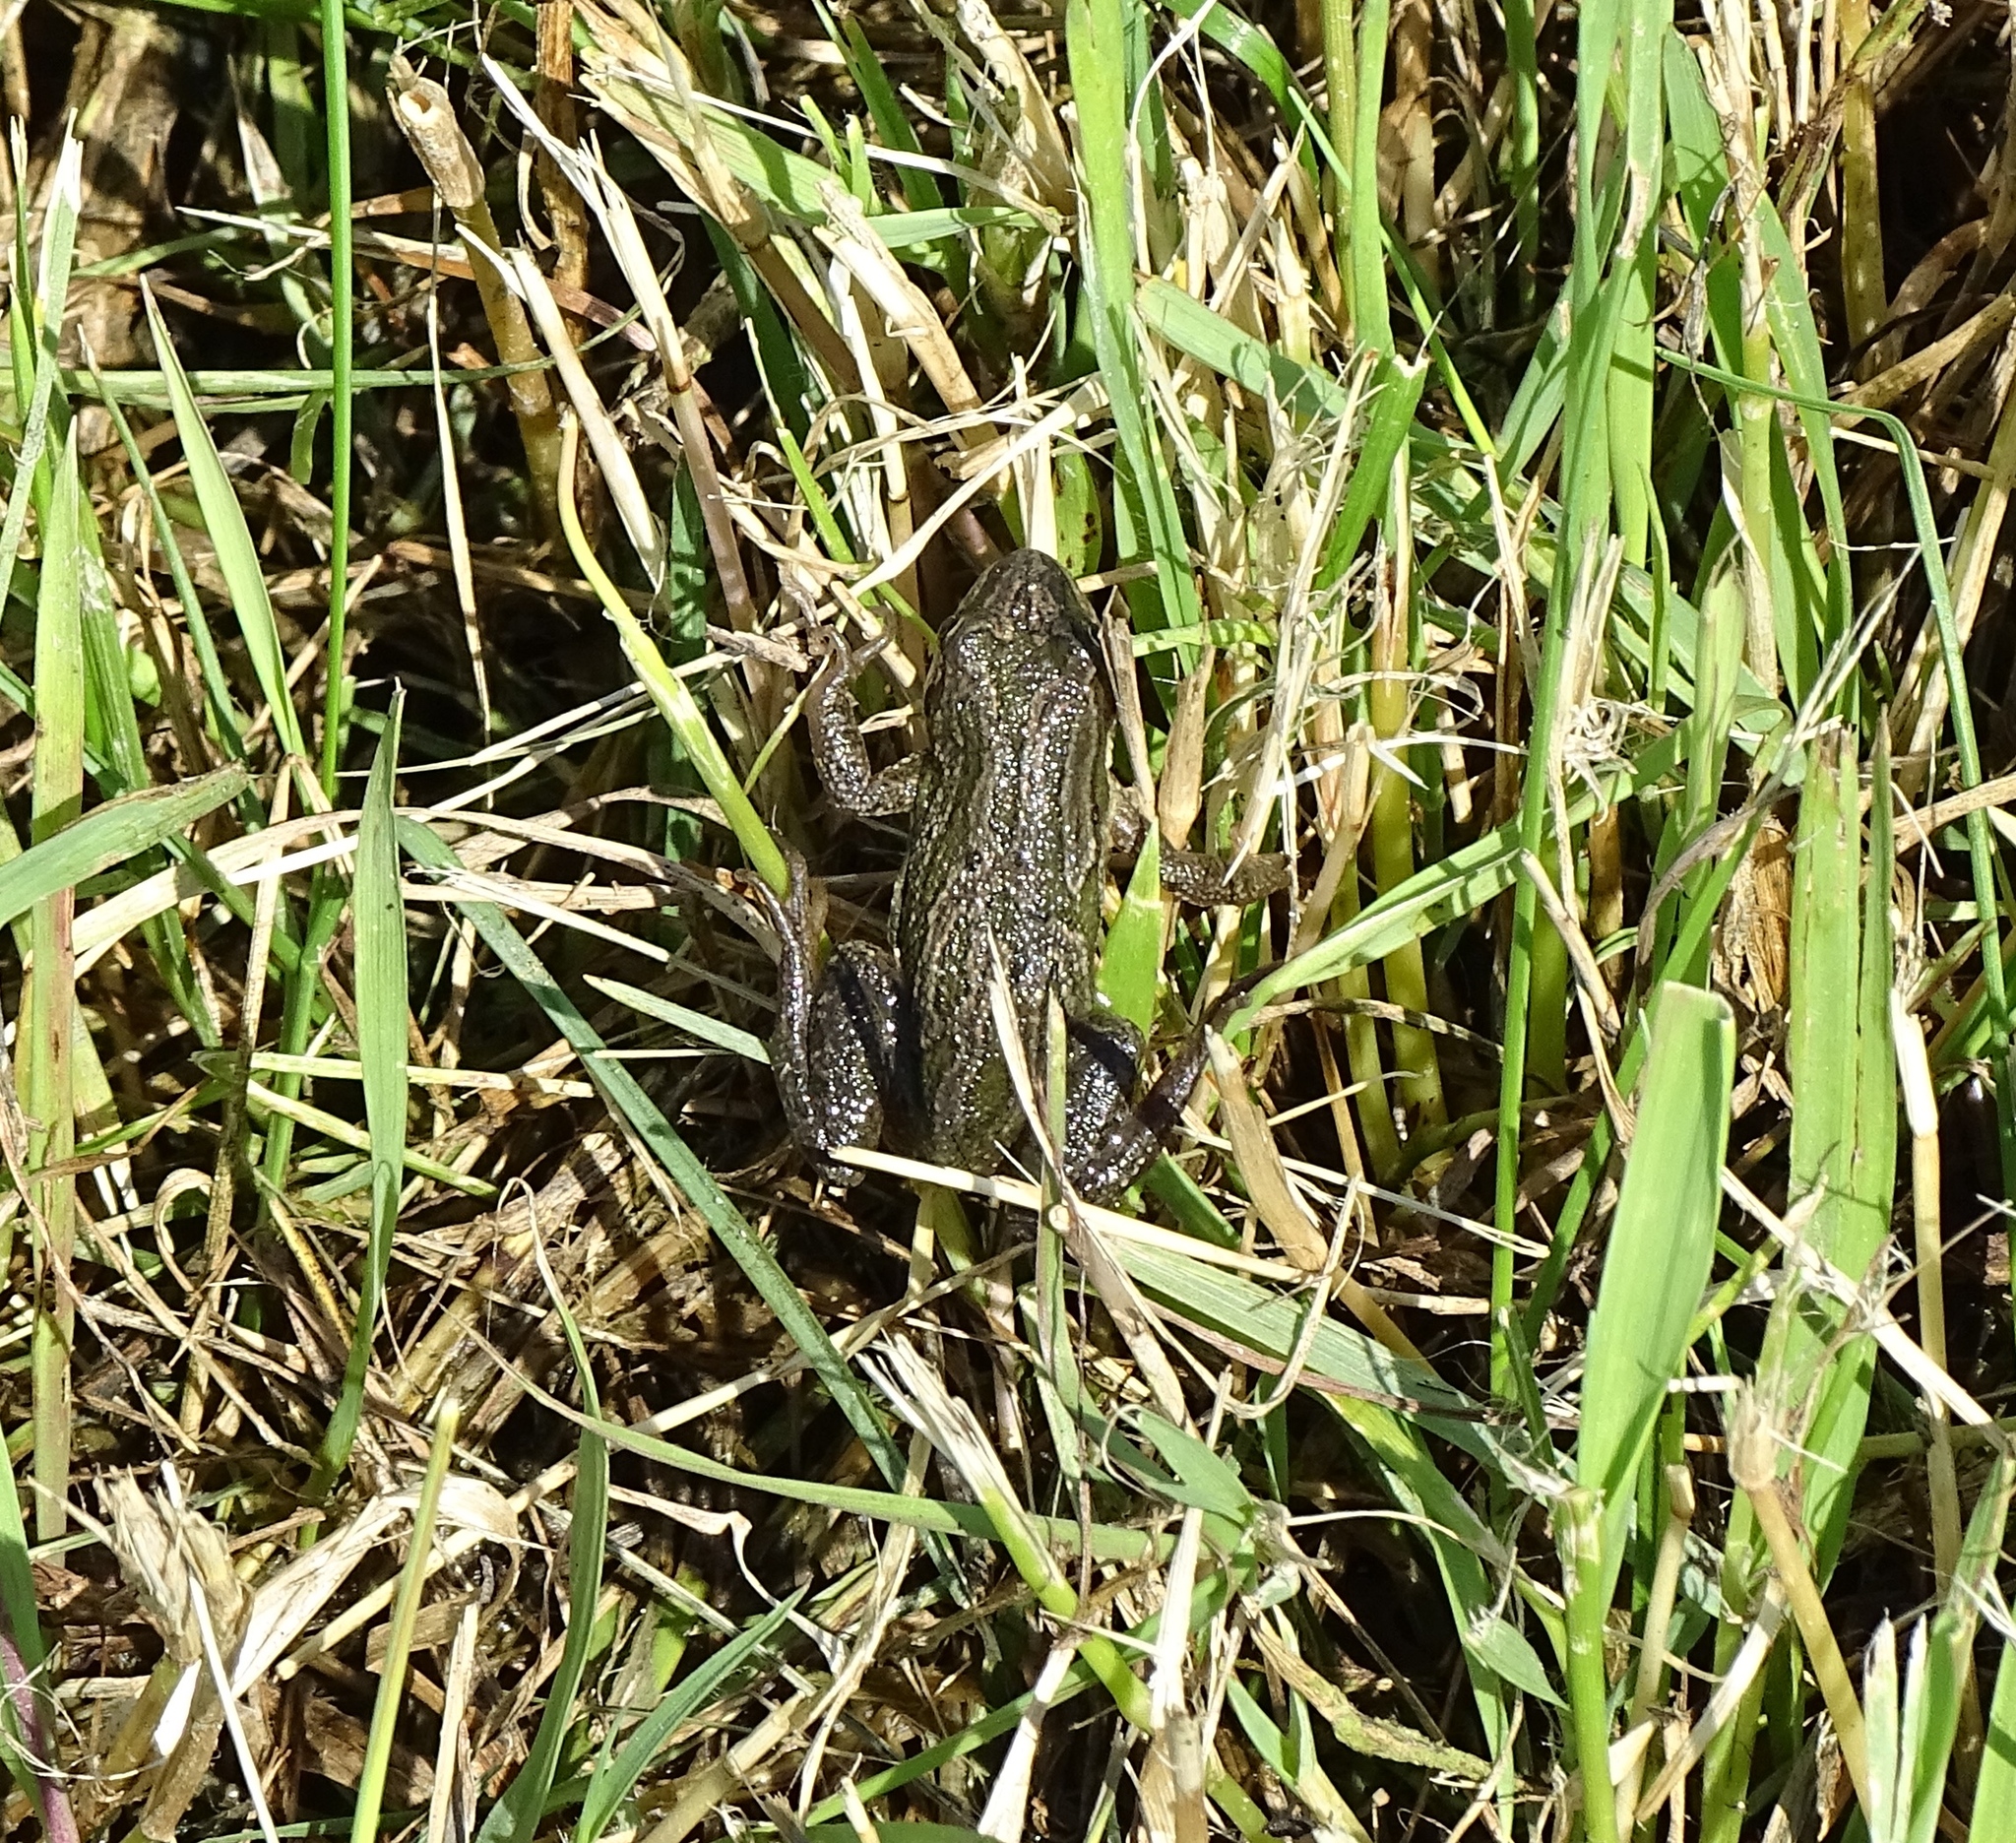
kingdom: Animalia
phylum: Chordata
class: Amphibia
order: Anura
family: Hylidae
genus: Pseudacris
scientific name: Pseudacris maculata
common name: Boreal chorus frog
